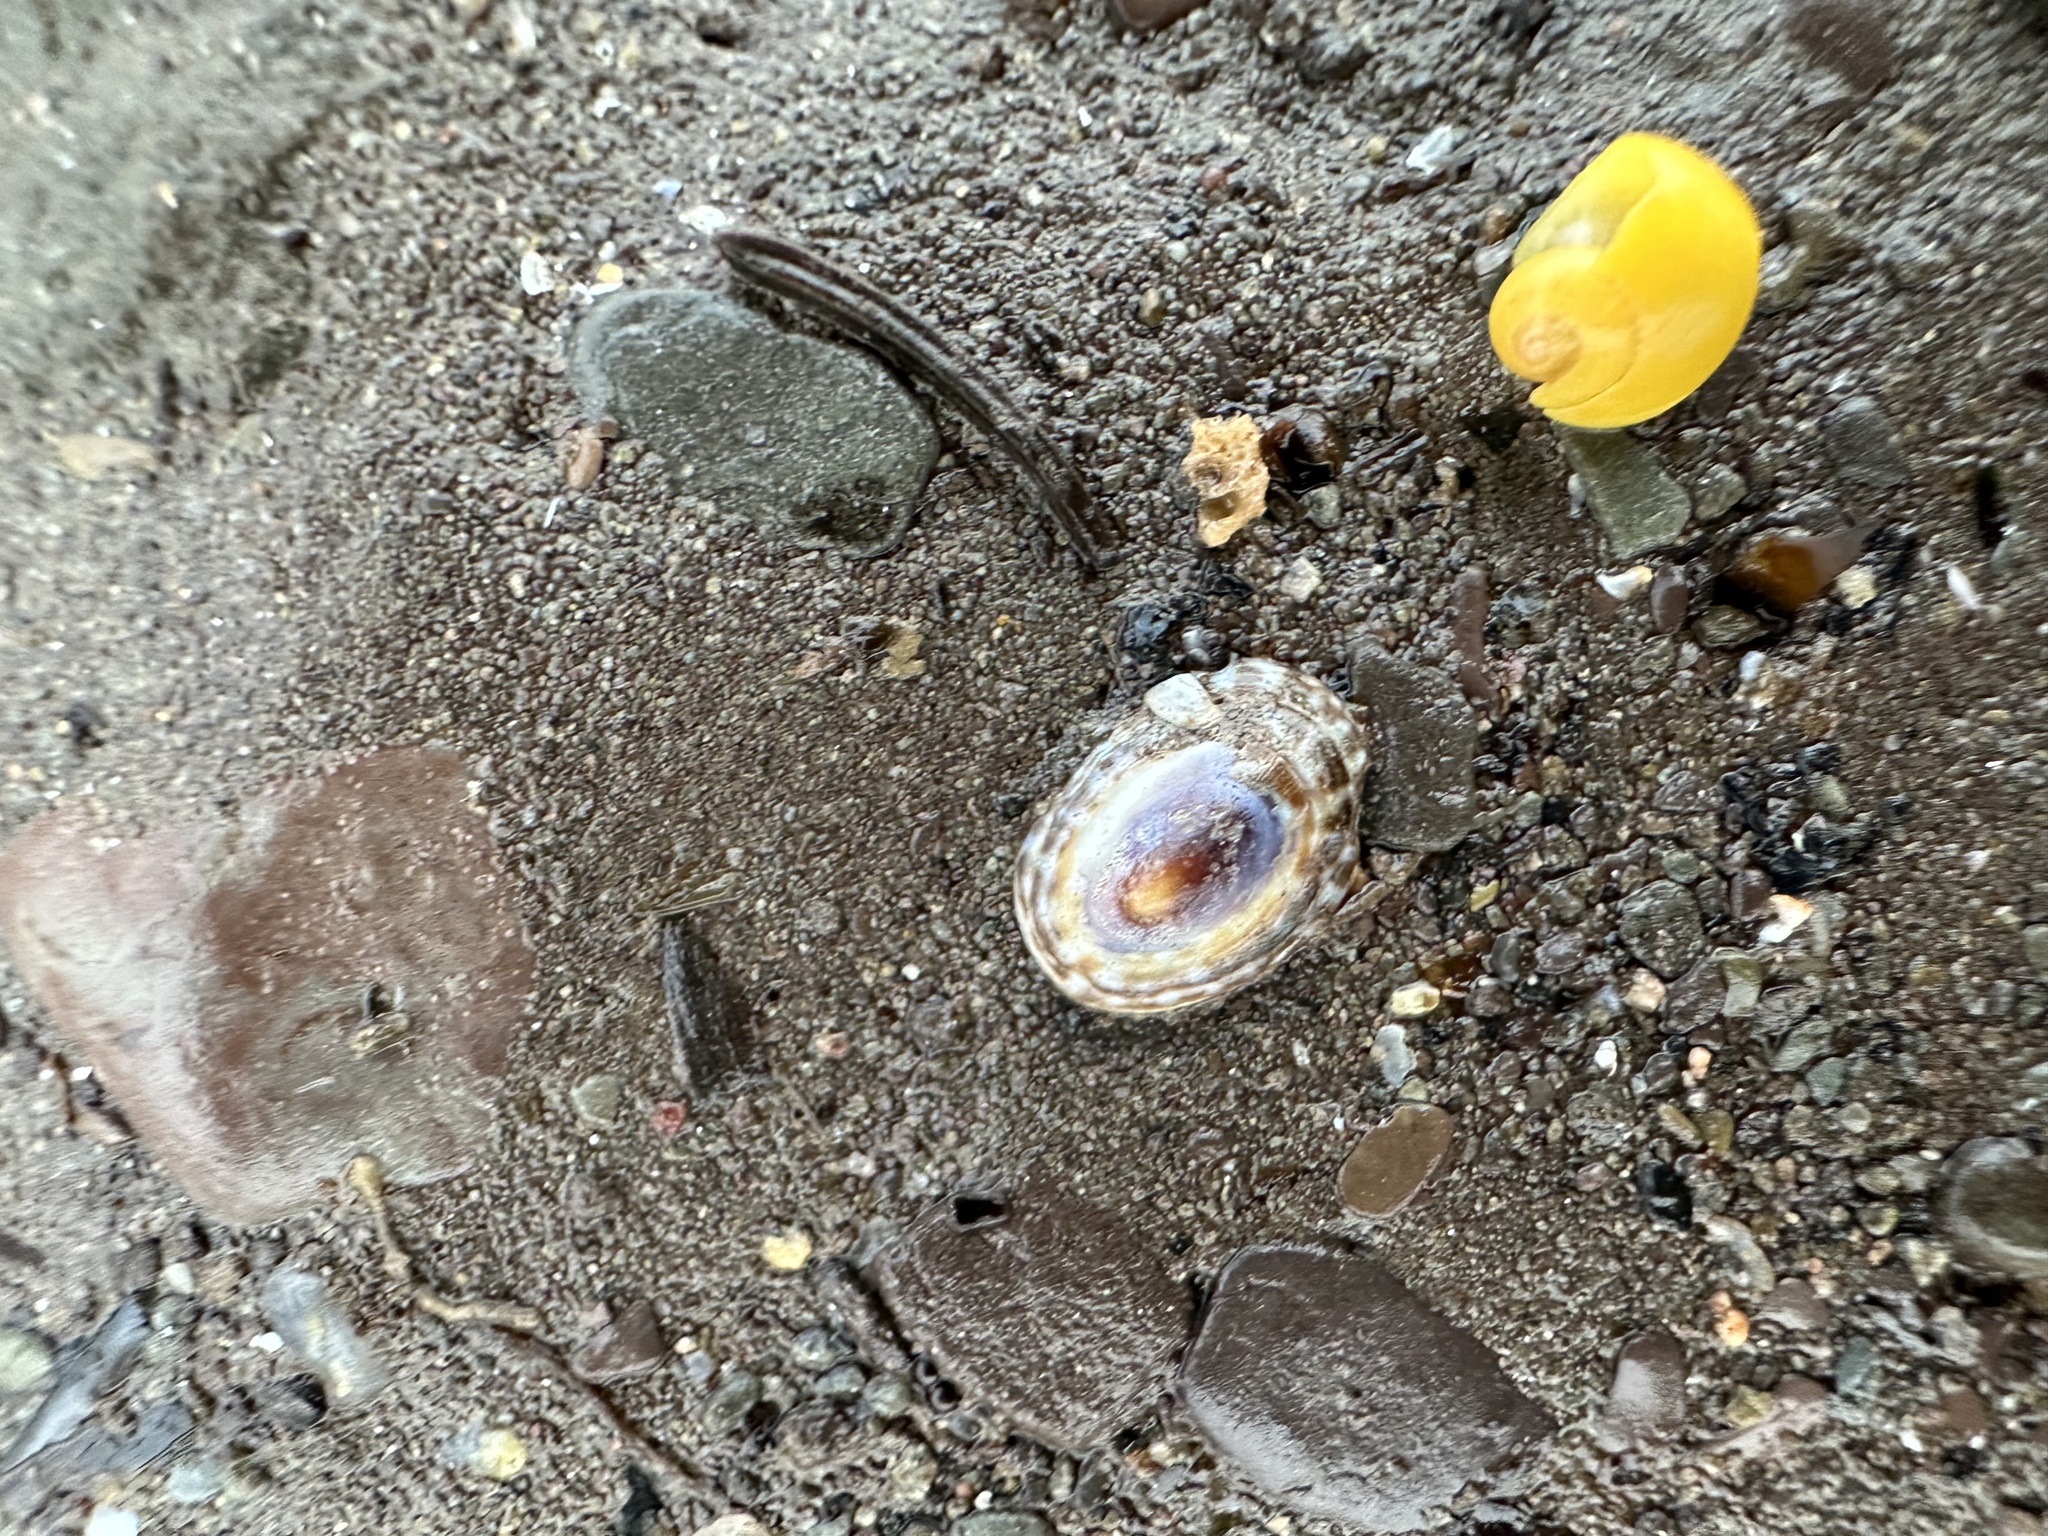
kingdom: Animalia
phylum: Mollusca
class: Gastropoda
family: Lottiidae
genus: Testudinalia
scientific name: Testudinalia testudinalis
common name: Common tortoiseshell limpet
